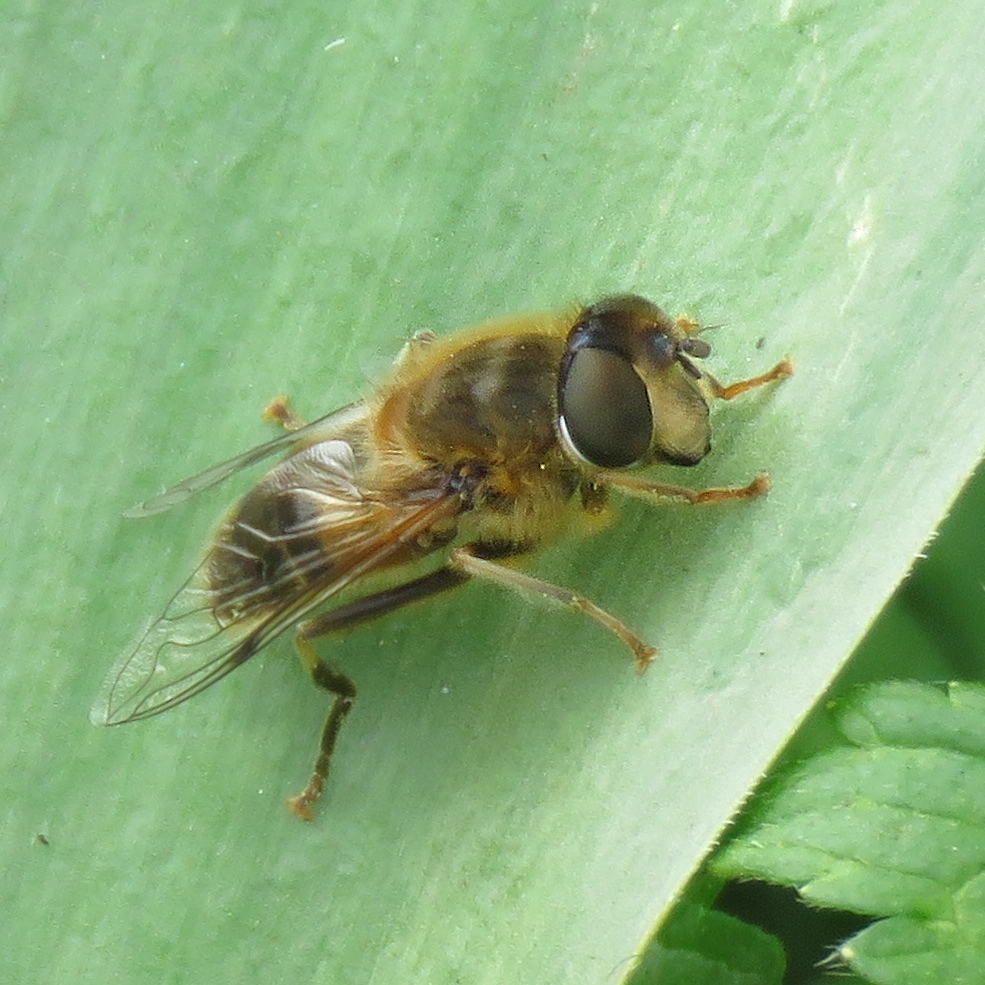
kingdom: Animalia
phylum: Arthropoda
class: Insecta
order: Diptera
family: Syrphidae
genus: Eristalis
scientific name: Eristalis pertinax
